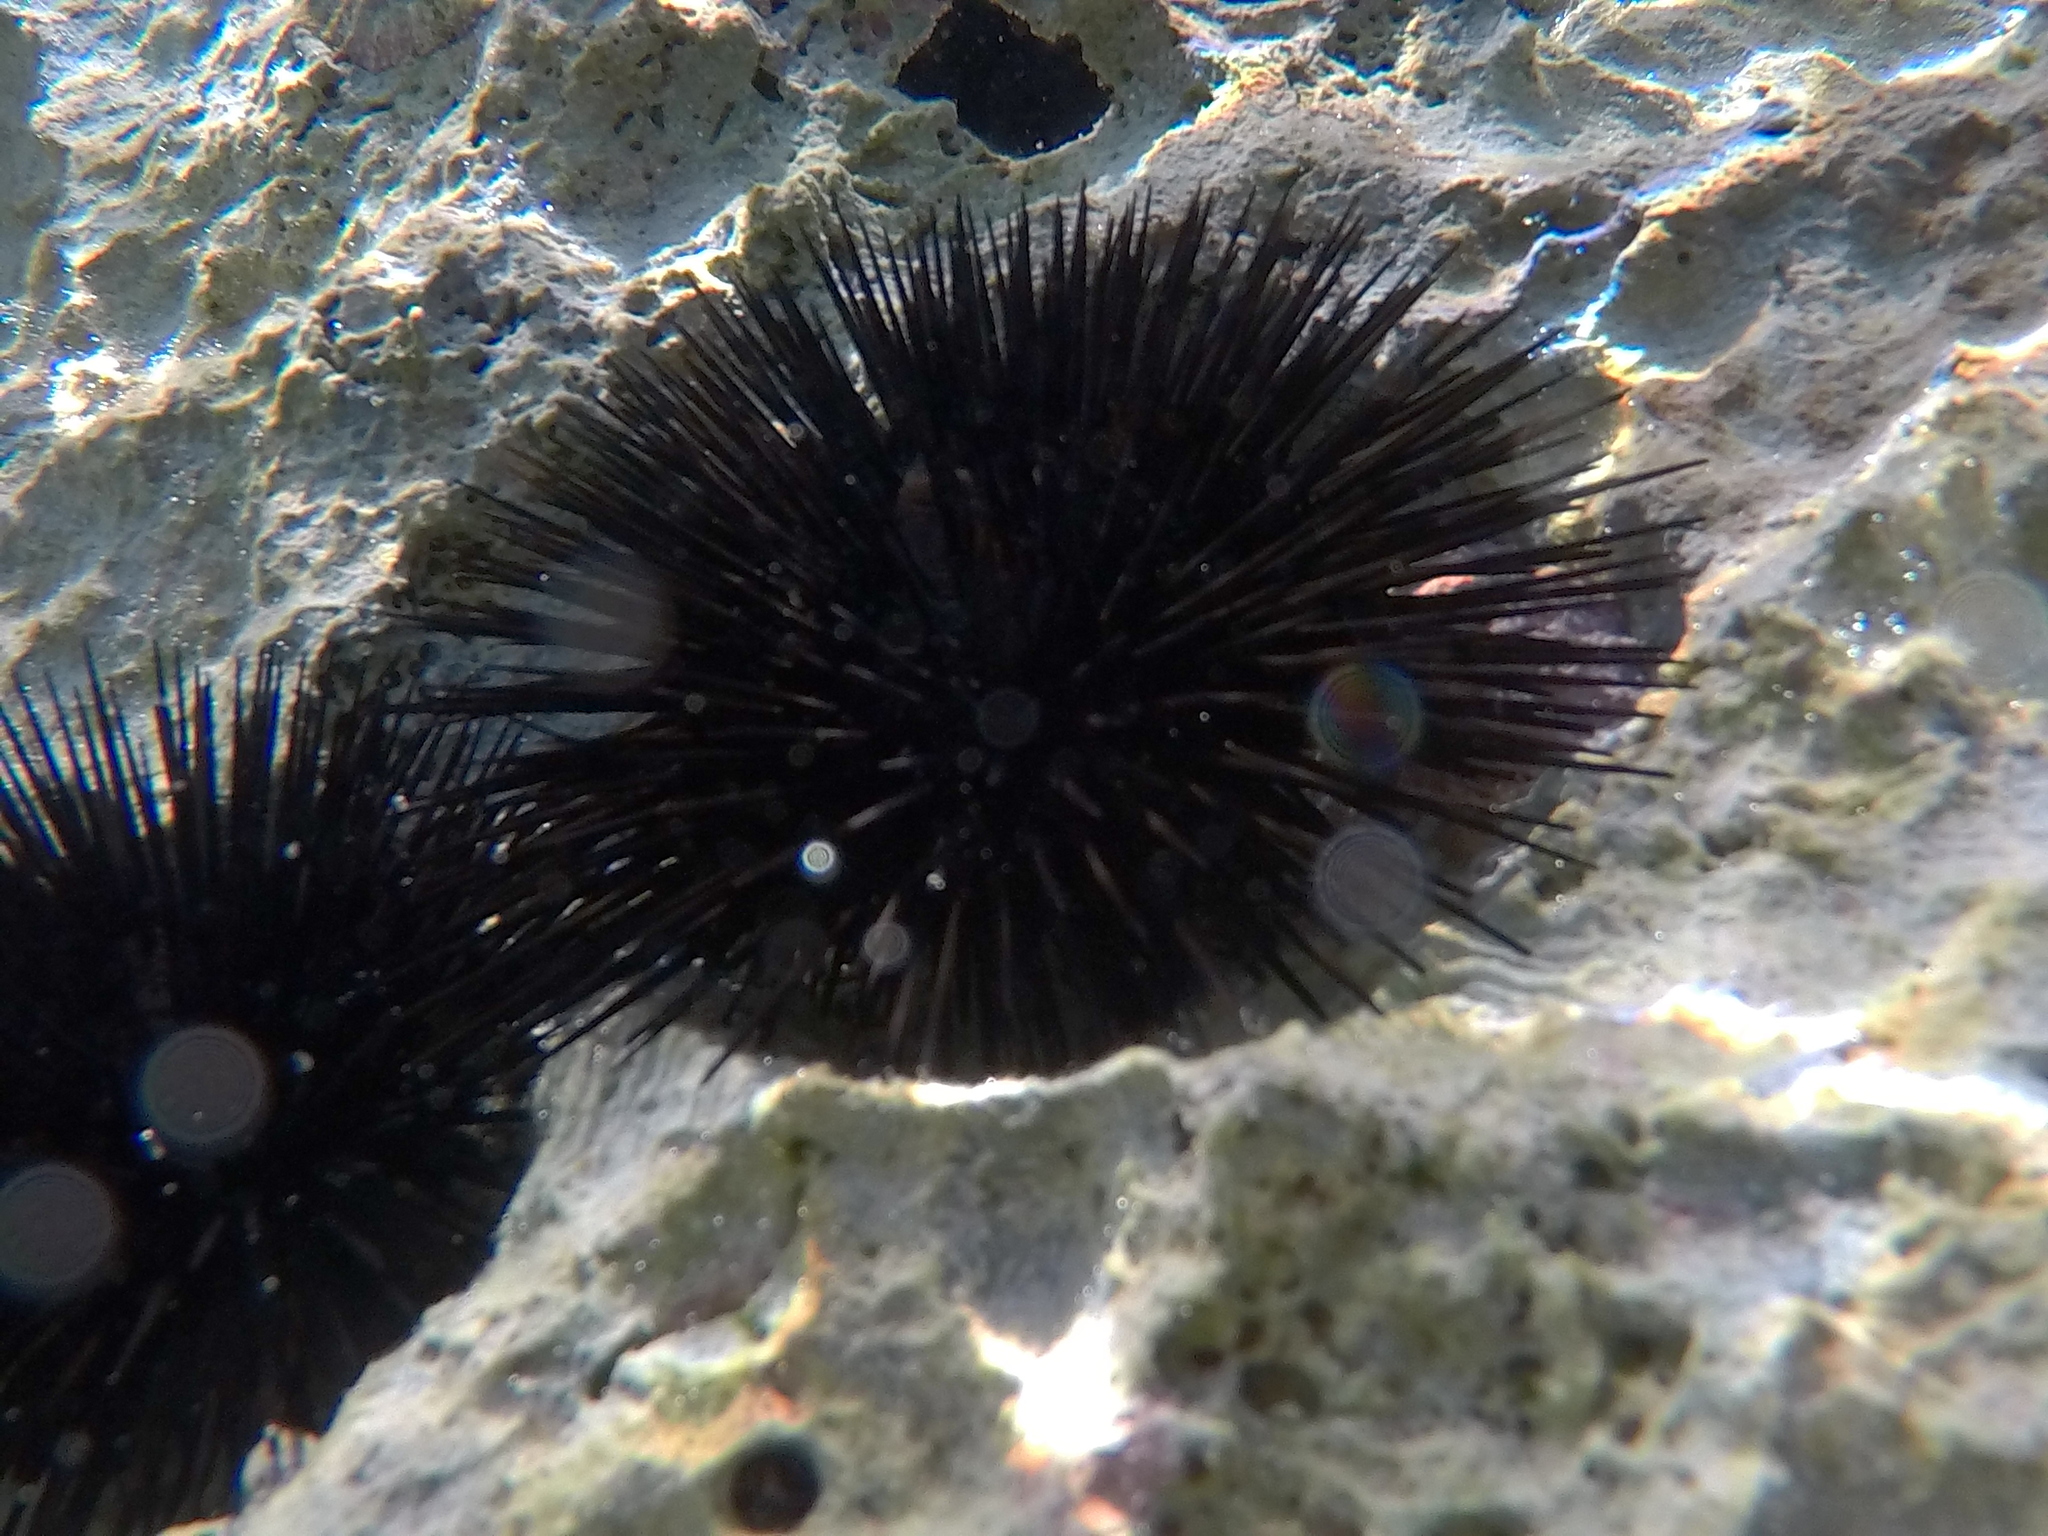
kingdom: Animalia
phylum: Echinodermata
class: Echinoidea
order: Arbacioida
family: Arbaciidae
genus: Arbacia
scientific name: Arbacia lixula
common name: Black sea urchin
